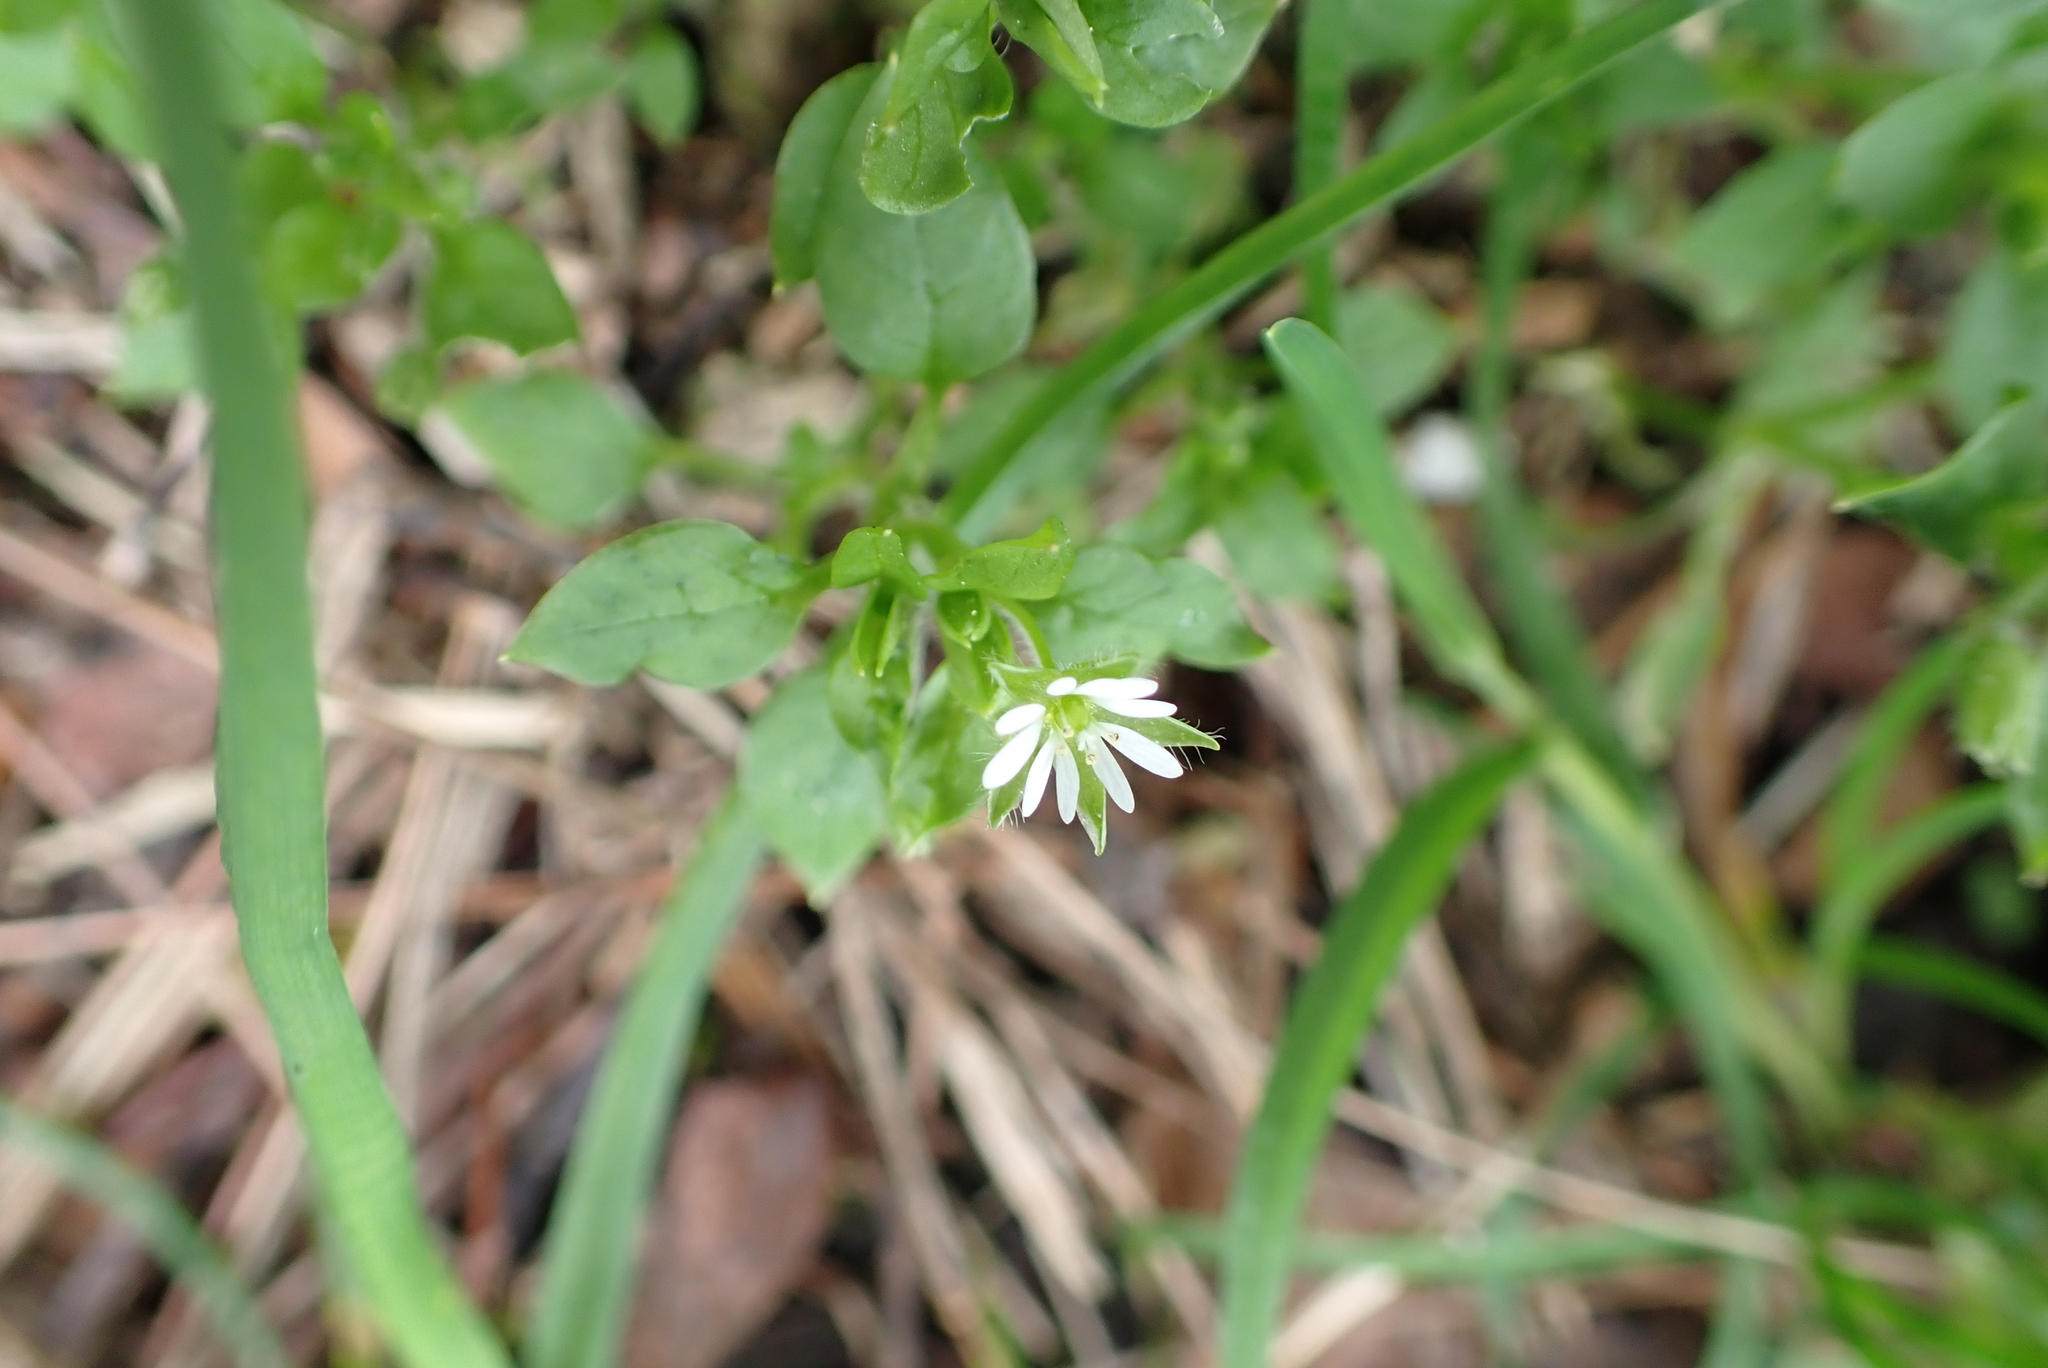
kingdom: Plantae
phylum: Tracheophyta
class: Magnoliopsida
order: Caryophyllales
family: Caryophyllaceae
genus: Stellaria
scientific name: Stellaria media
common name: Common chickweed
